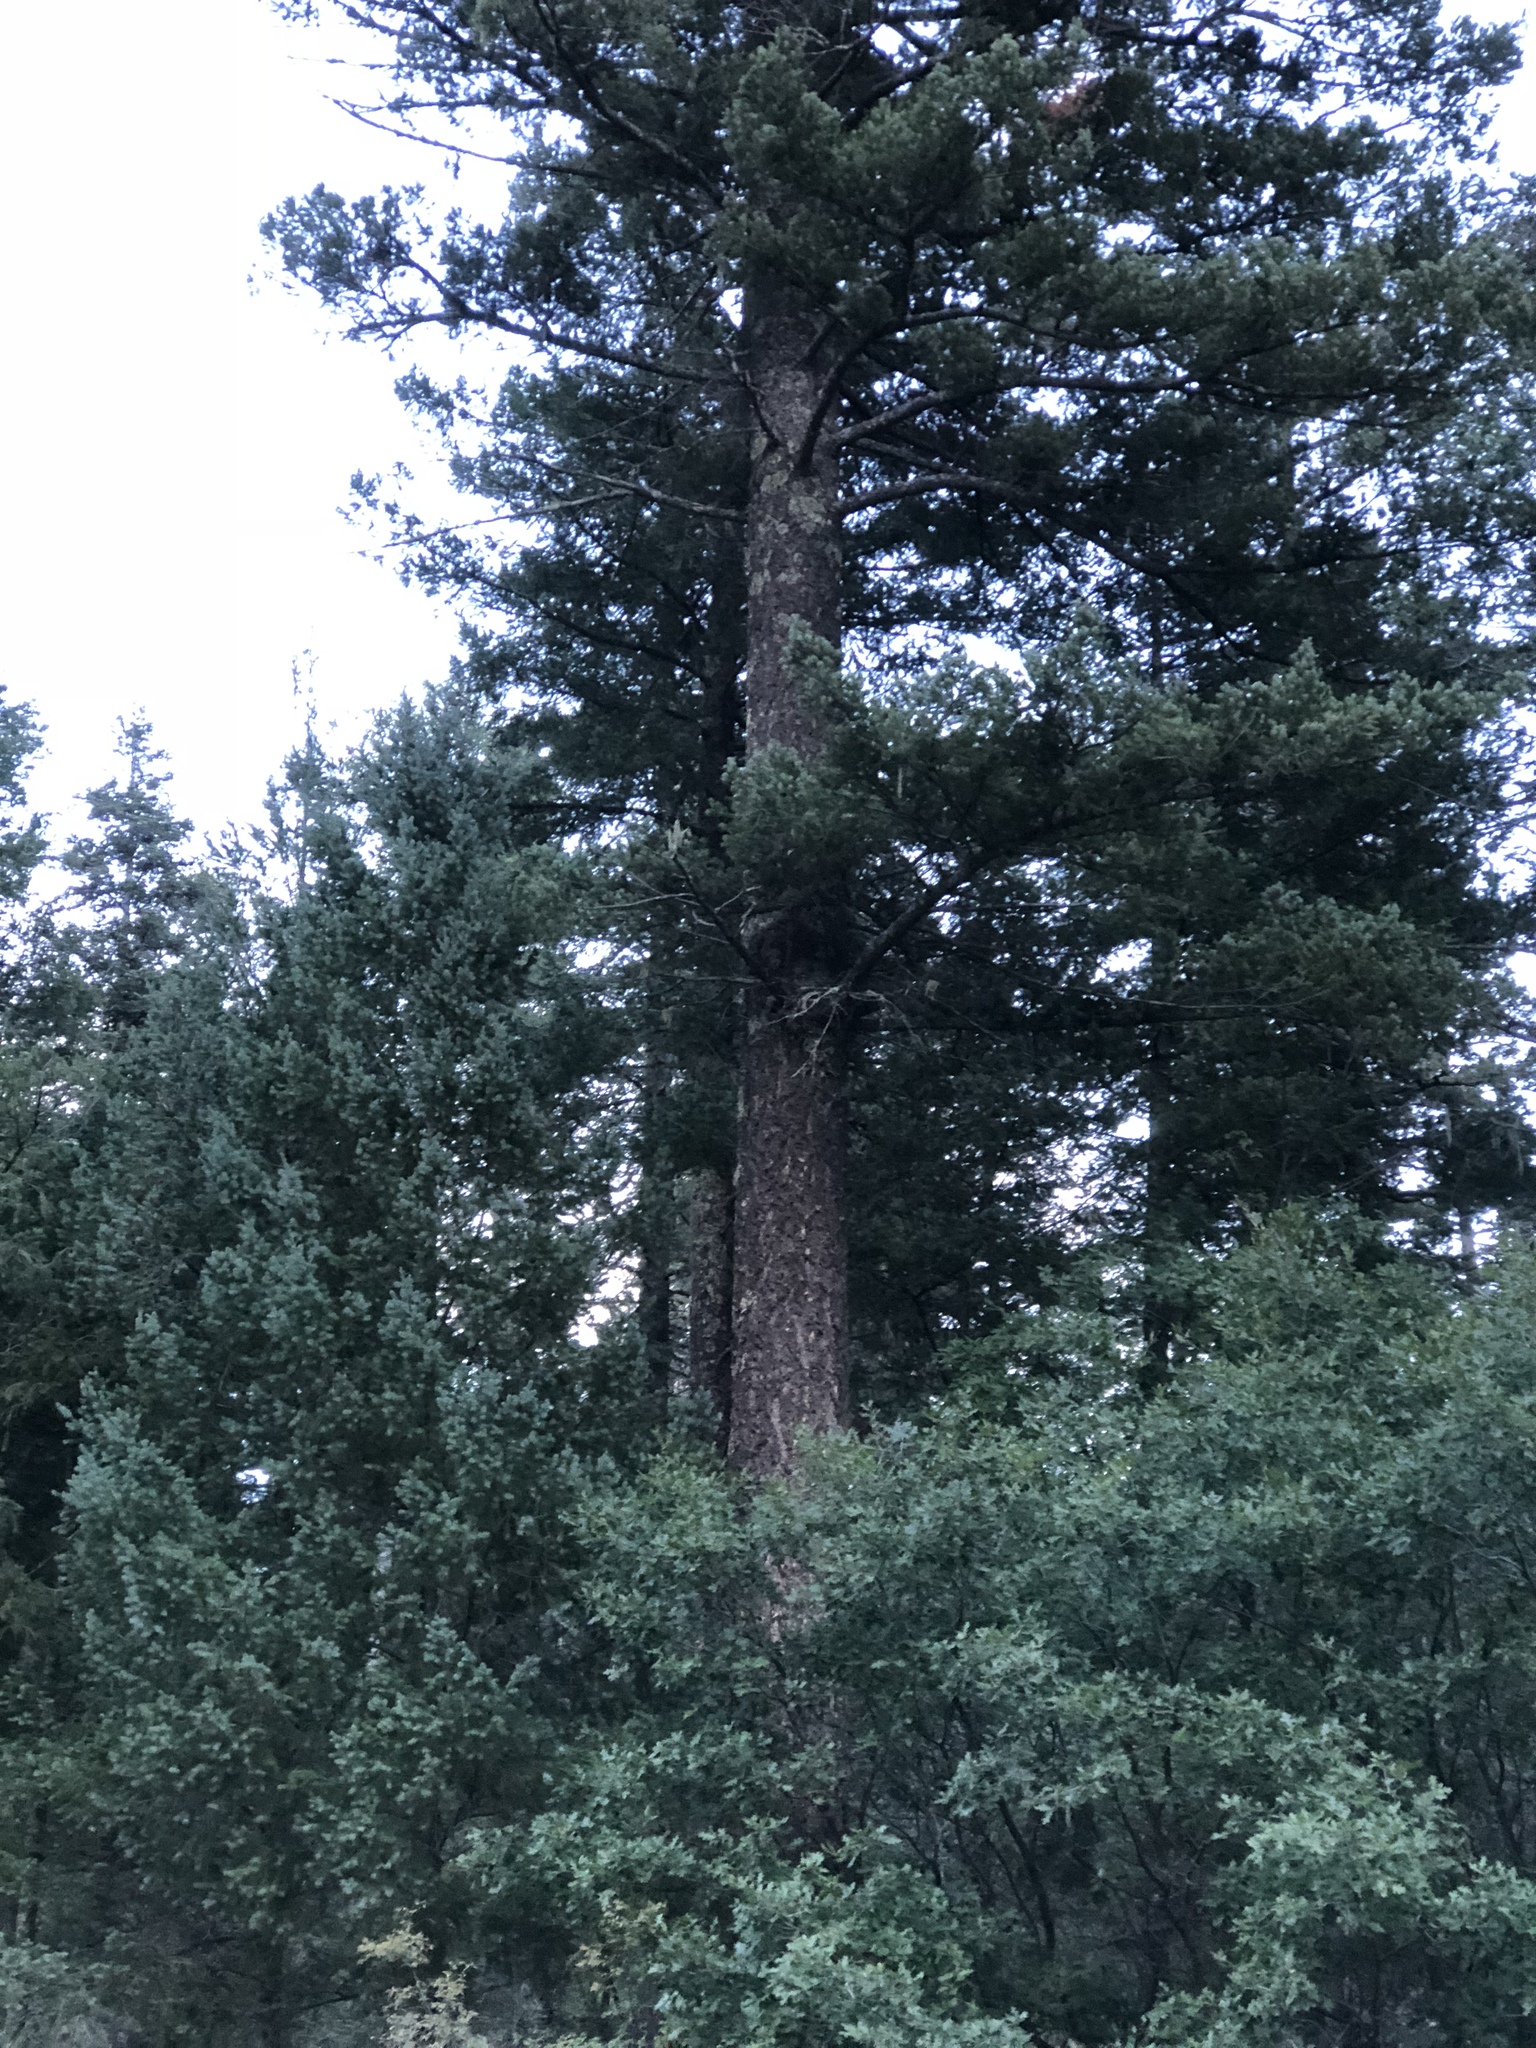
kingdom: Plantae
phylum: Tracheophyta
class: Pinopsida
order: Pinales
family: Pinaceae
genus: Pseudotsuga
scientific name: Pseudotsuga menziesii
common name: Douglas fir
